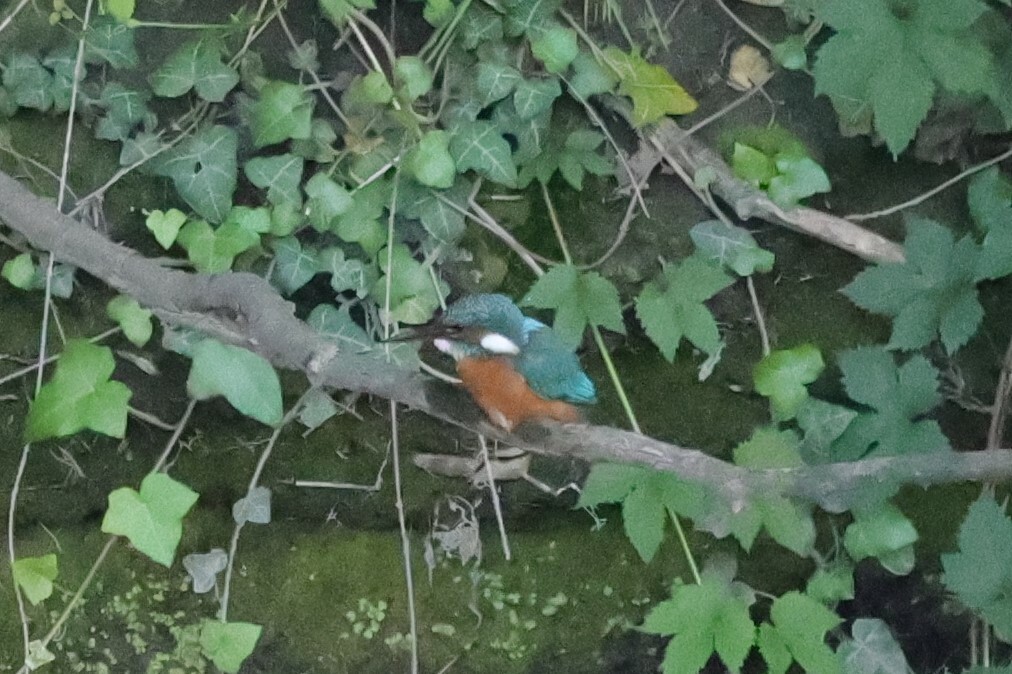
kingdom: Animalia
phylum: Chordata
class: Aves
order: Coraciiformes
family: Alcedinidae
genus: Alcedo
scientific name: Alcedo atthis
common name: Common kingfisher
